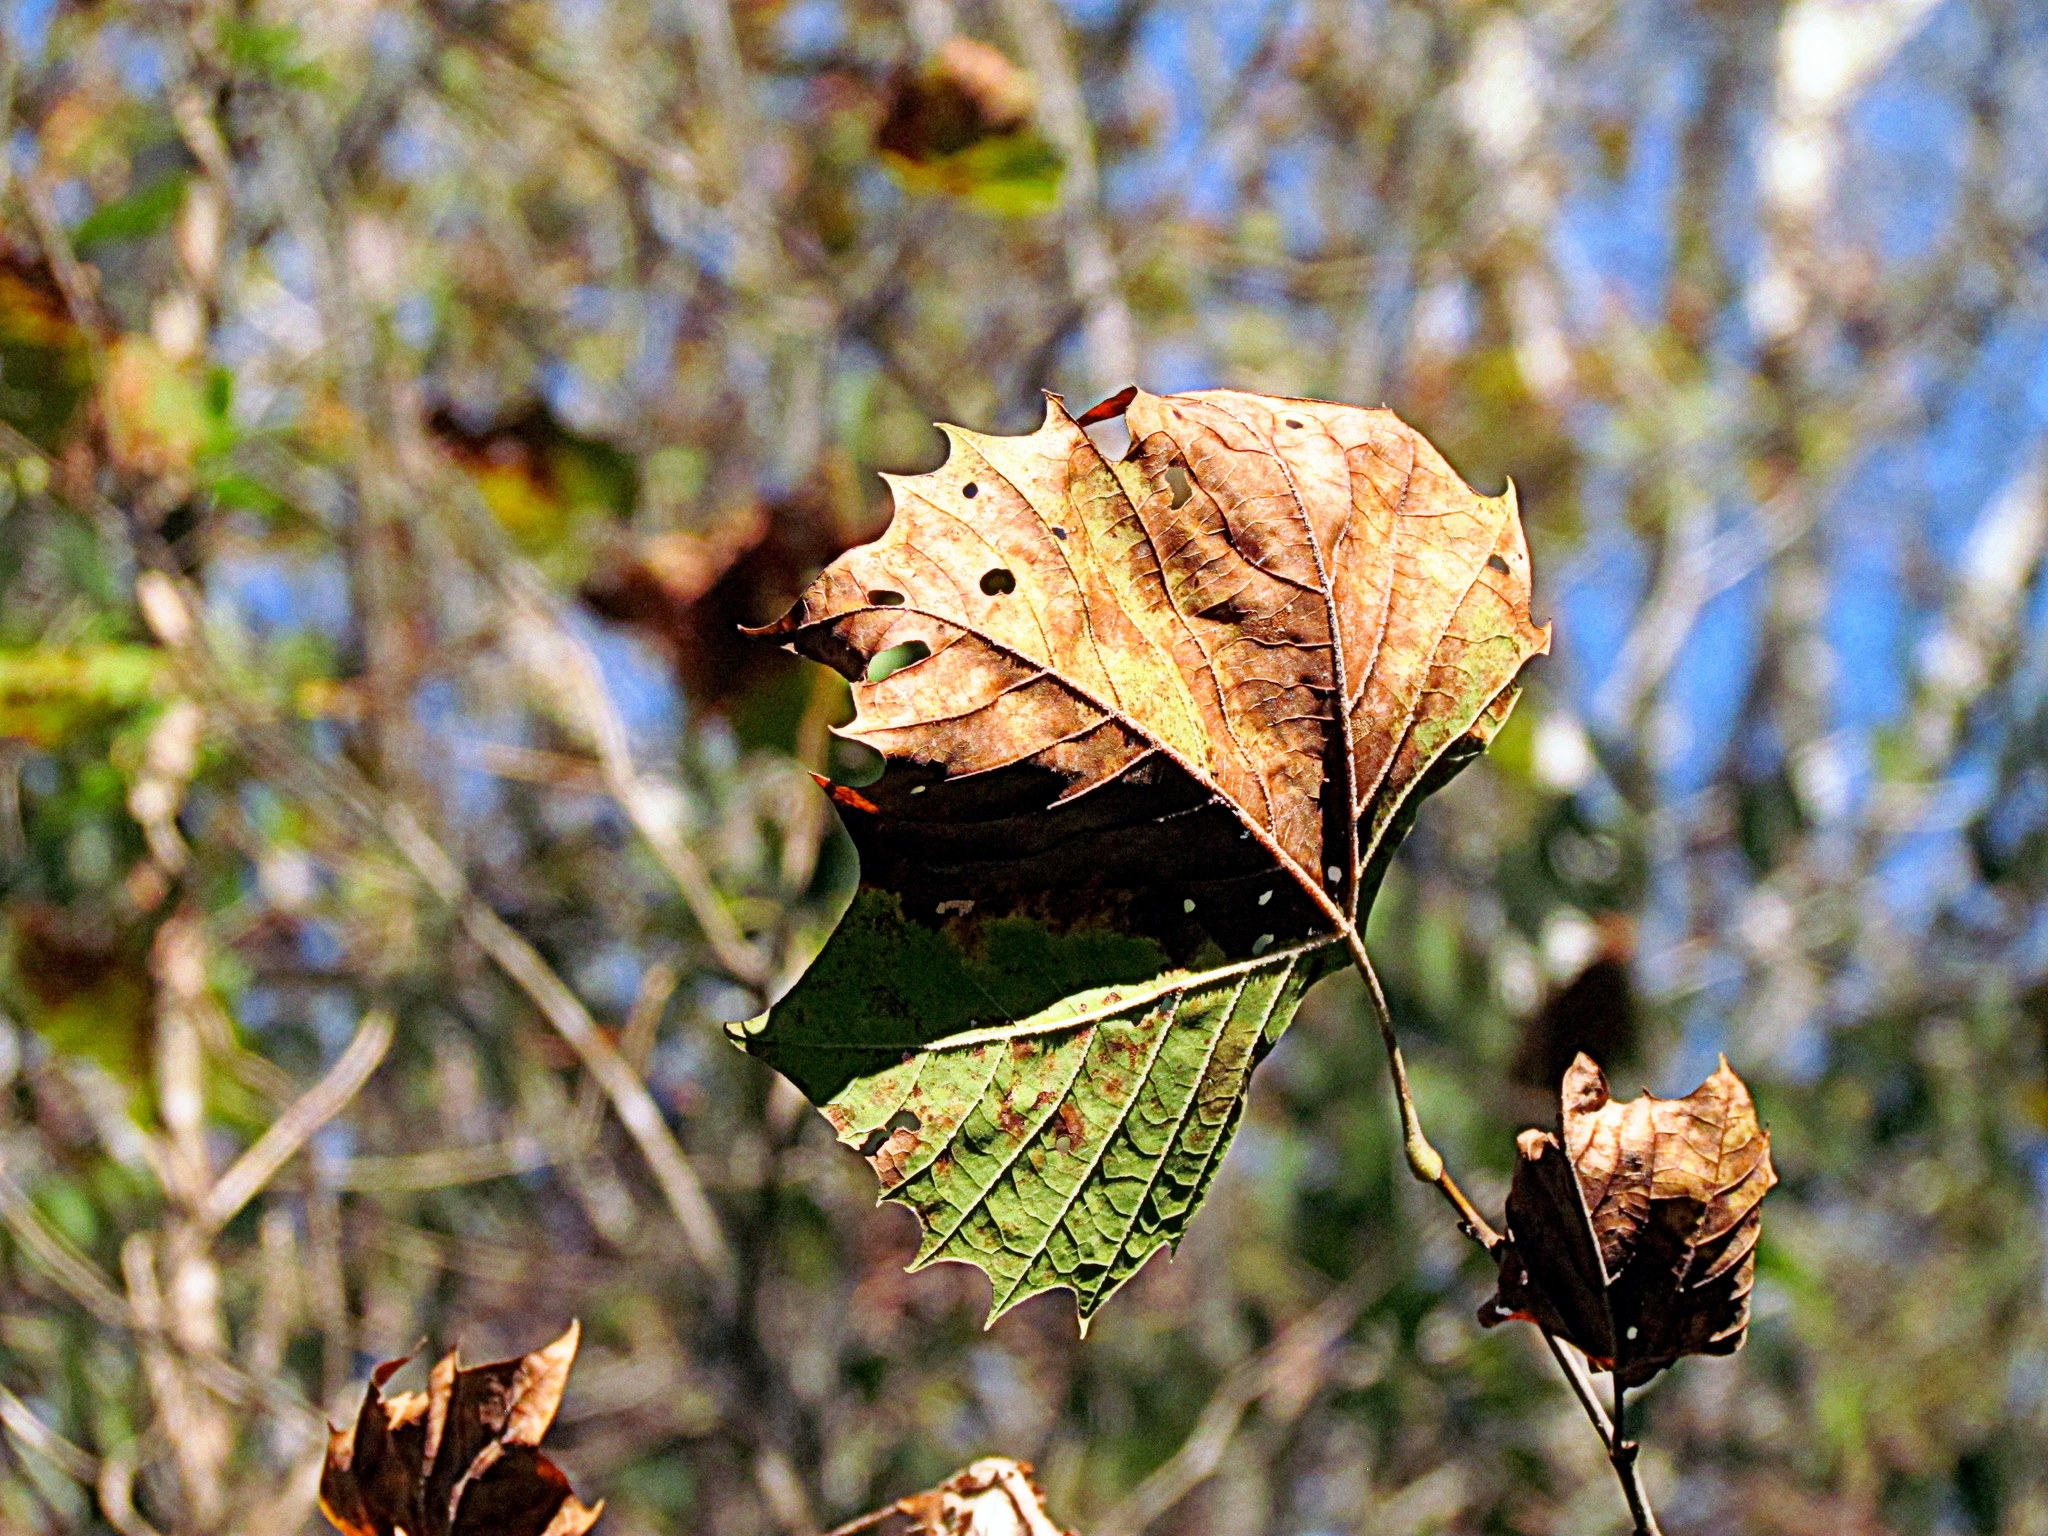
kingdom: Plantae
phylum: Tracheophyta
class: Magnoliopsida
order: Proteales
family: Platanaceae
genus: Platanus
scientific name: Platanus occidentalis
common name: American sycamore
